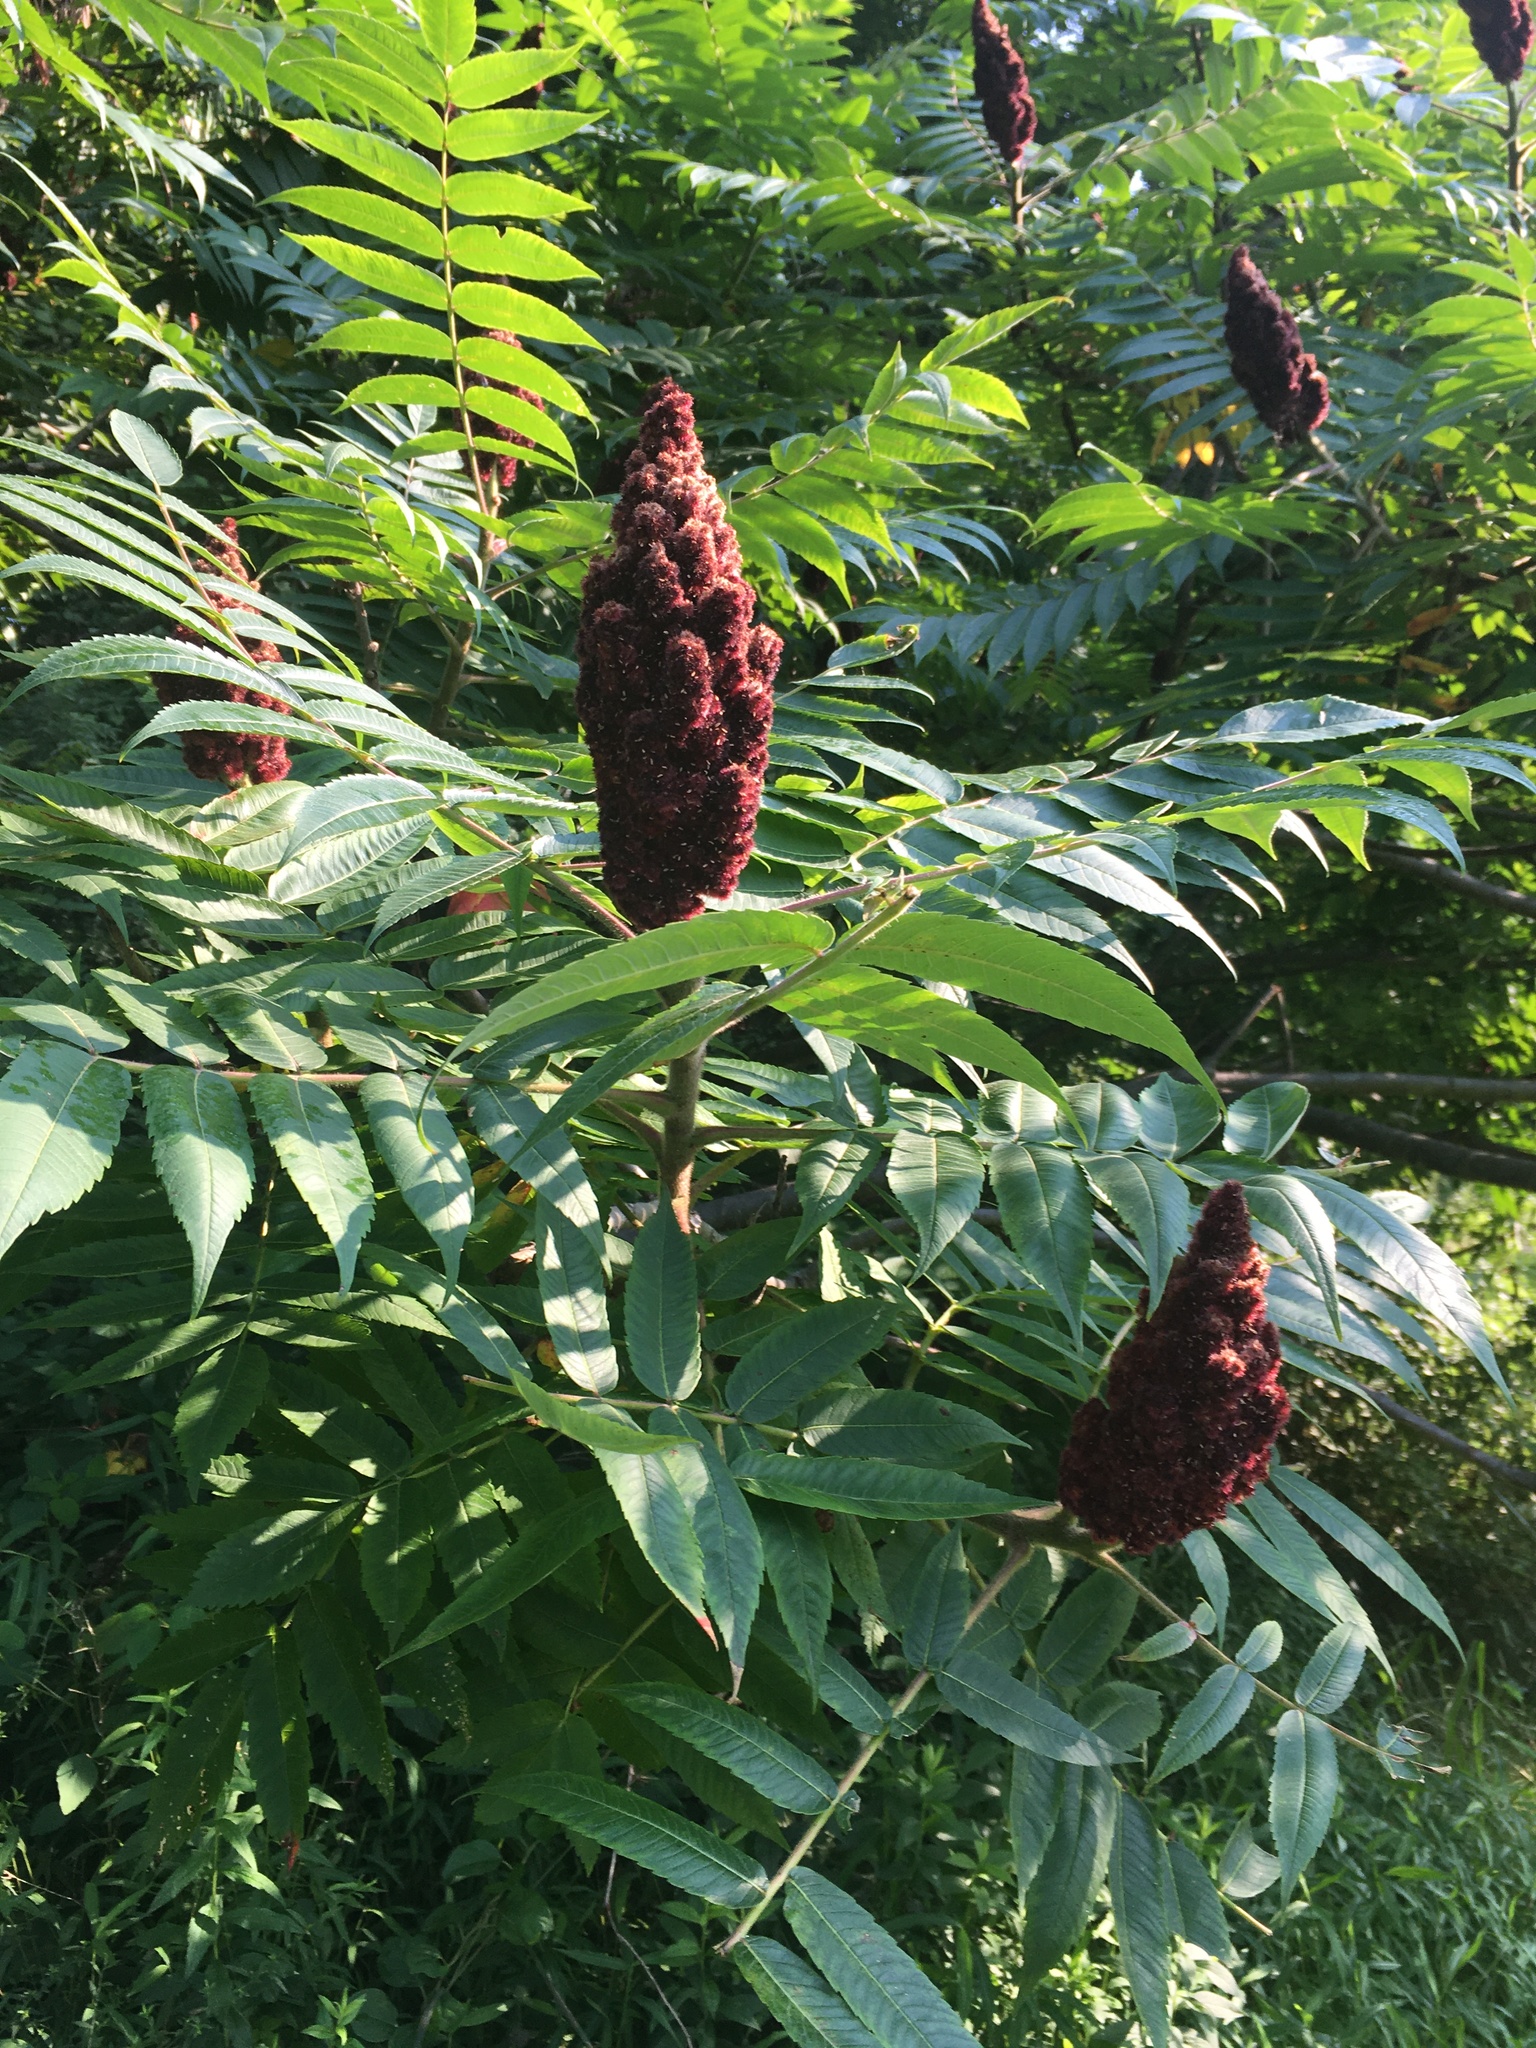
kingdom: Plantae
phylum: Tracheophyta
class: Magnoliopsida
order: Sapindales
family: Anacardiaceae
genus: Rhus
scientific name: Rhus typhina
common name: Staghorn sumac
